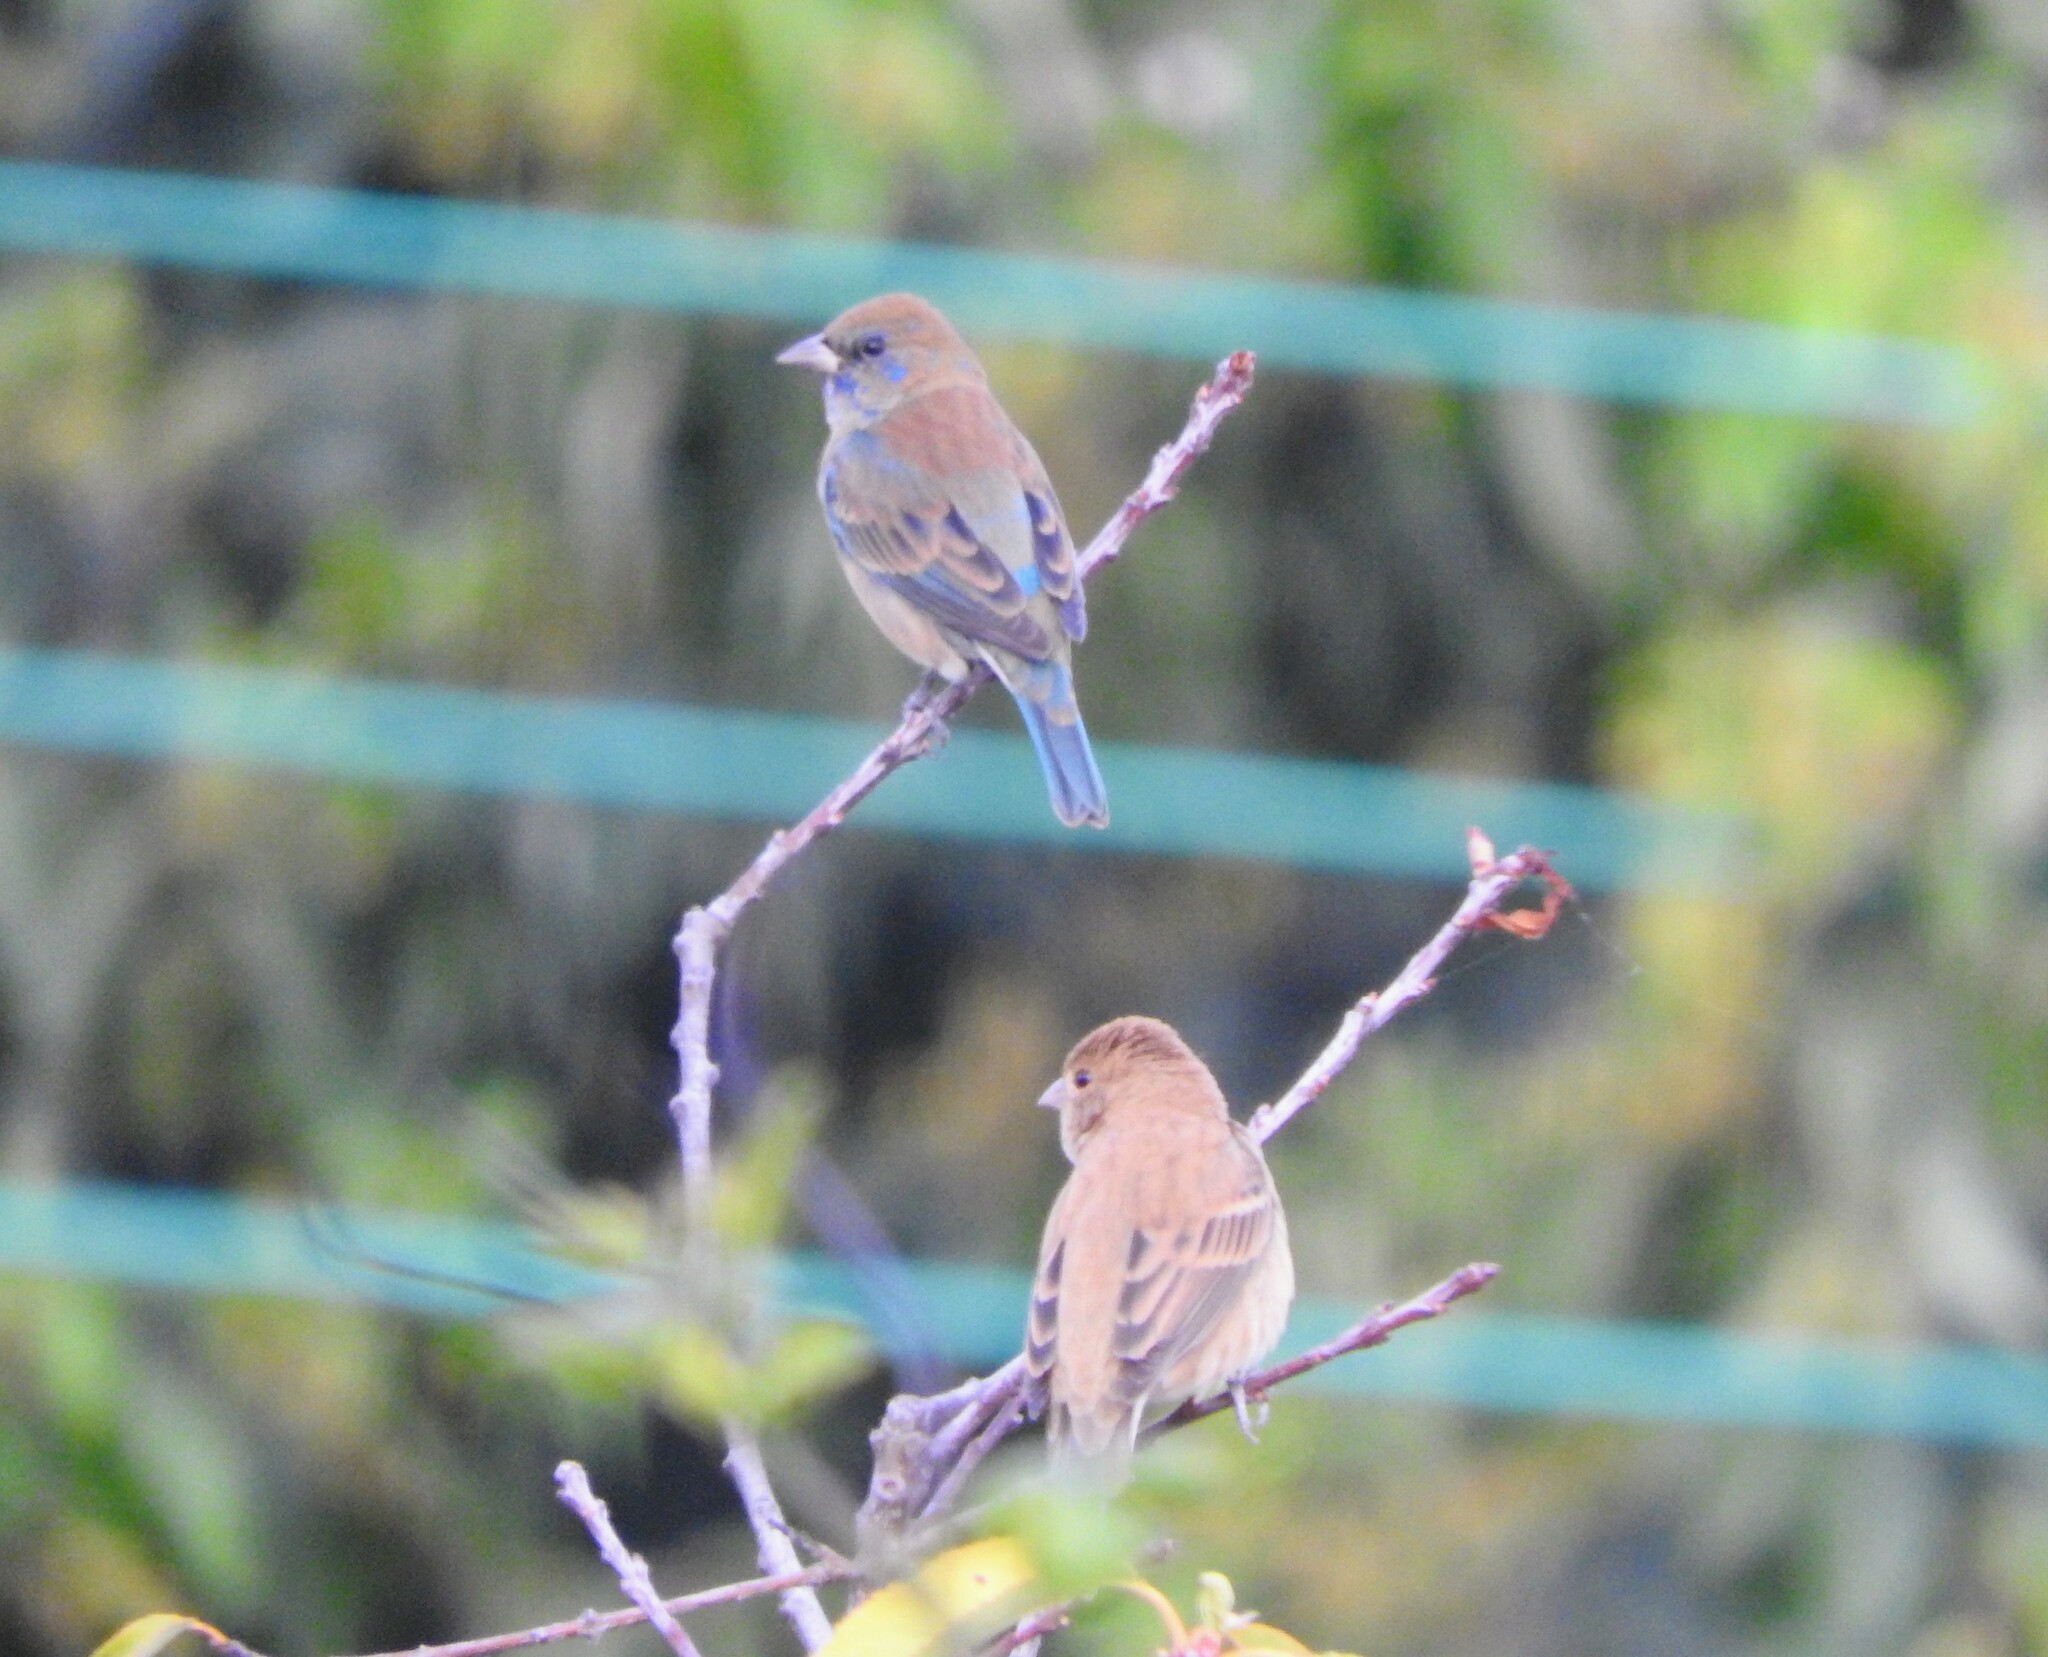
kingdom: Animalia
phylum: Chordata
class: Aves
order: Passeriformes
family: Cardinalidae
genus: Passerina
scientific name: Passerina cyanea
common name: Indigo bunting
